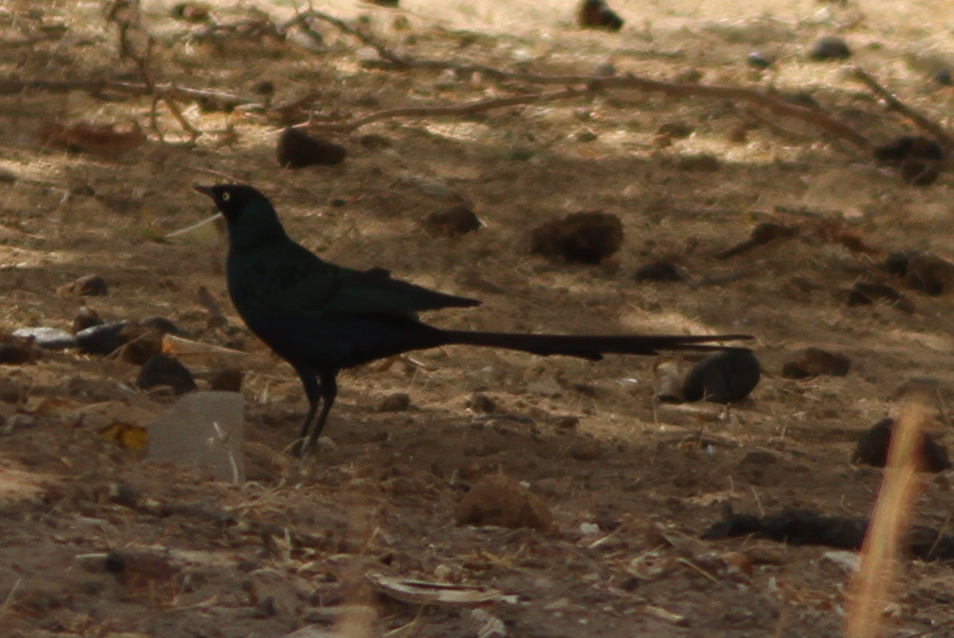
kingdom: Animalia
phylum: Chordata
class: Aves
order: Passeriformes
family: Sturnidae
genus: Lamprotornis
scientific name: Lamprotornis caudatus
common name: Long-tailed glossy starling
